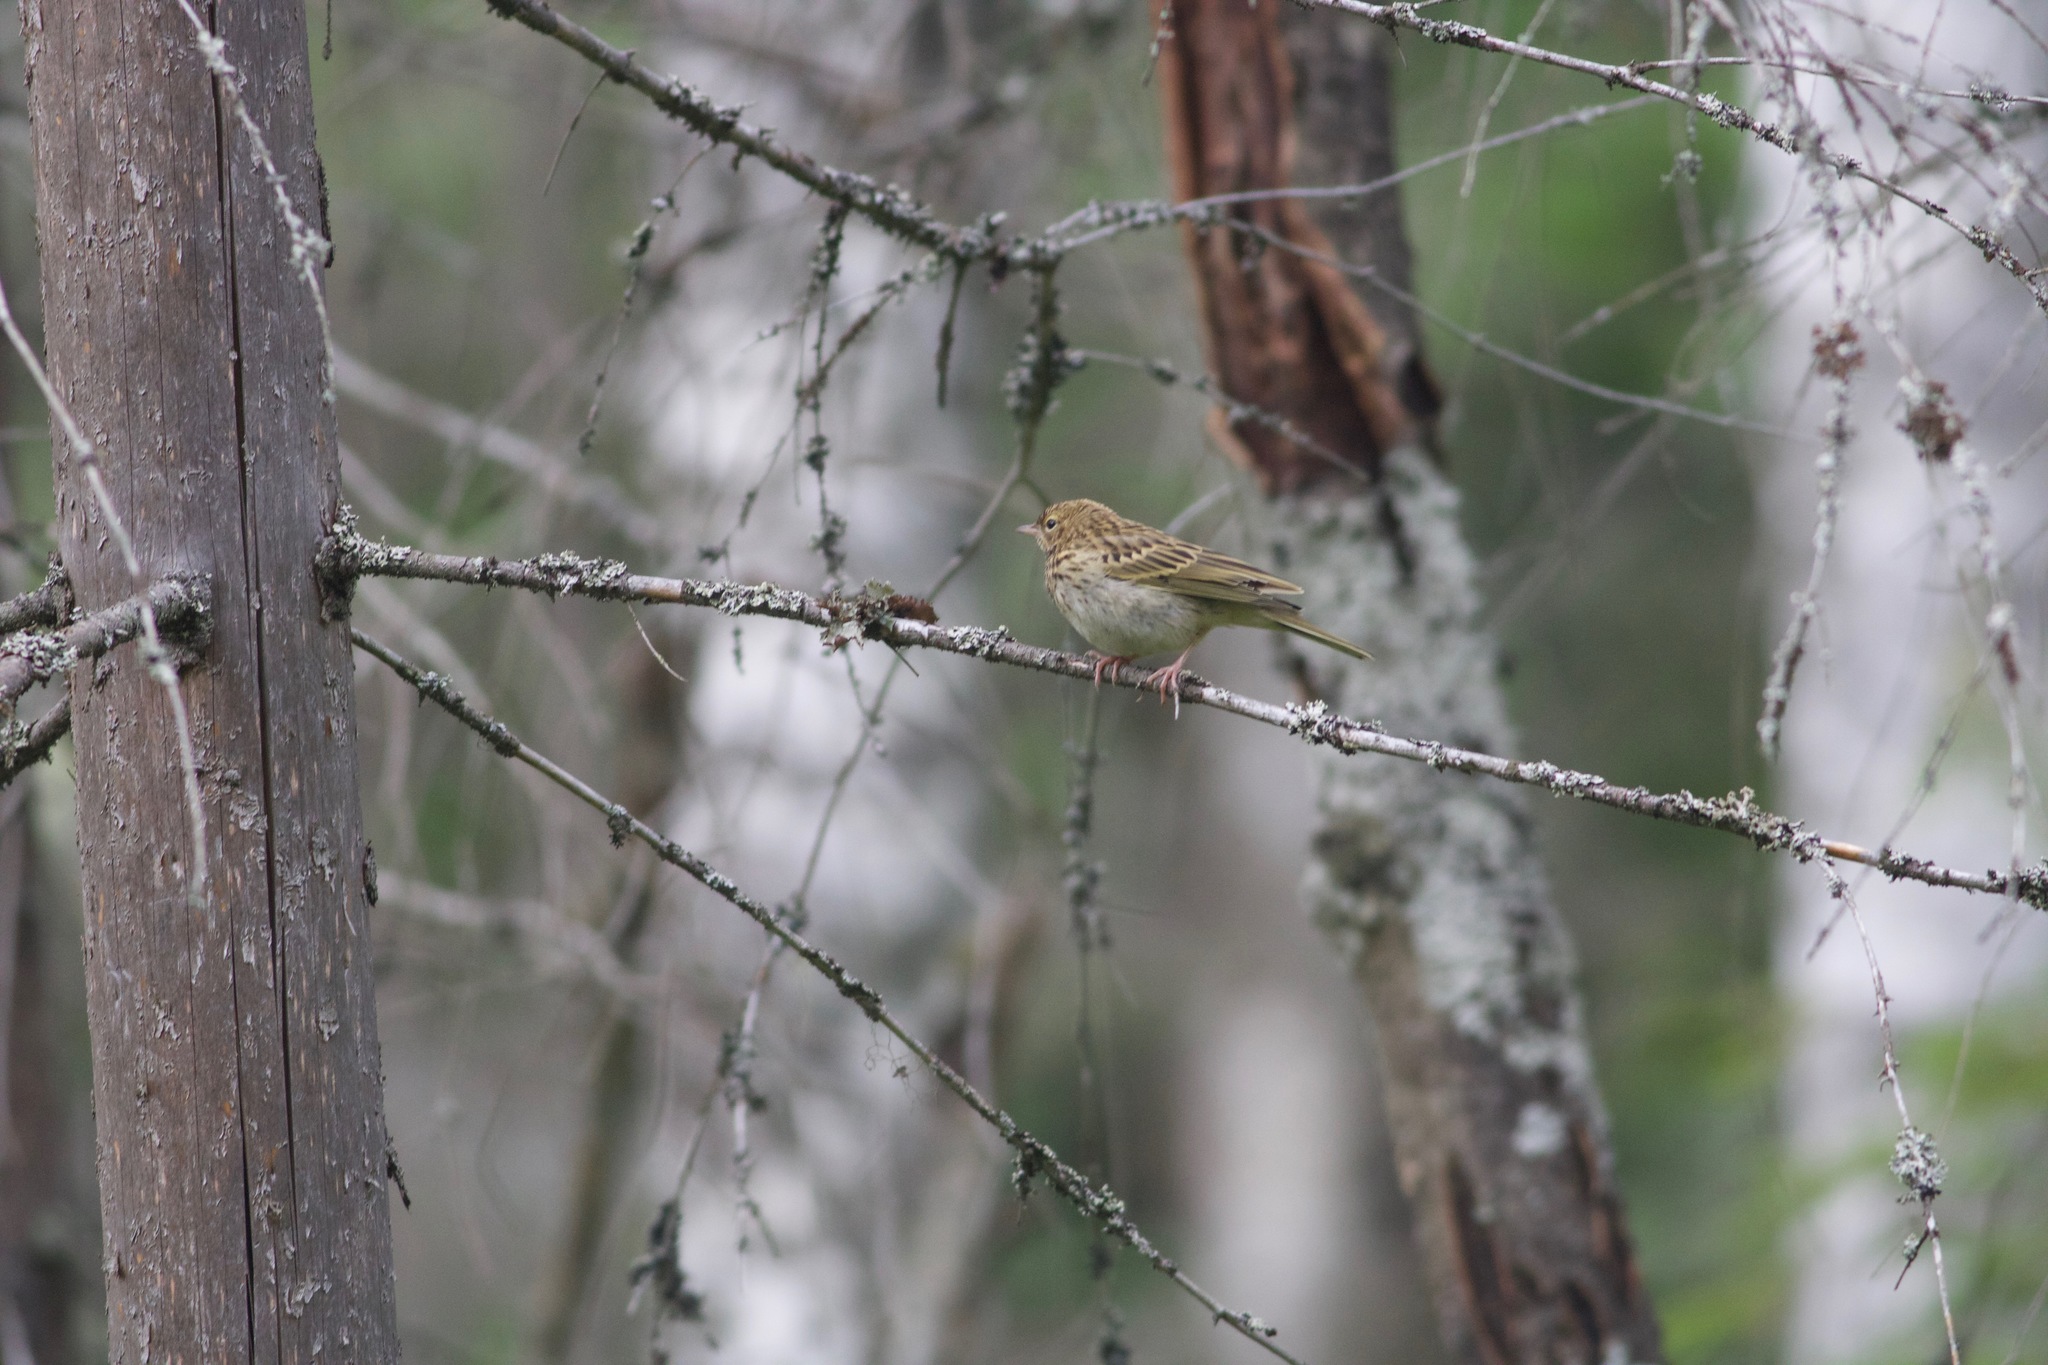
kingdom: Animalia
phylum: Chordata
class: Aves
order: Passeriformes
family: Motacillidae
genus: Anthus
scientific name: Anthus trivialis
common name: Tree pipit
